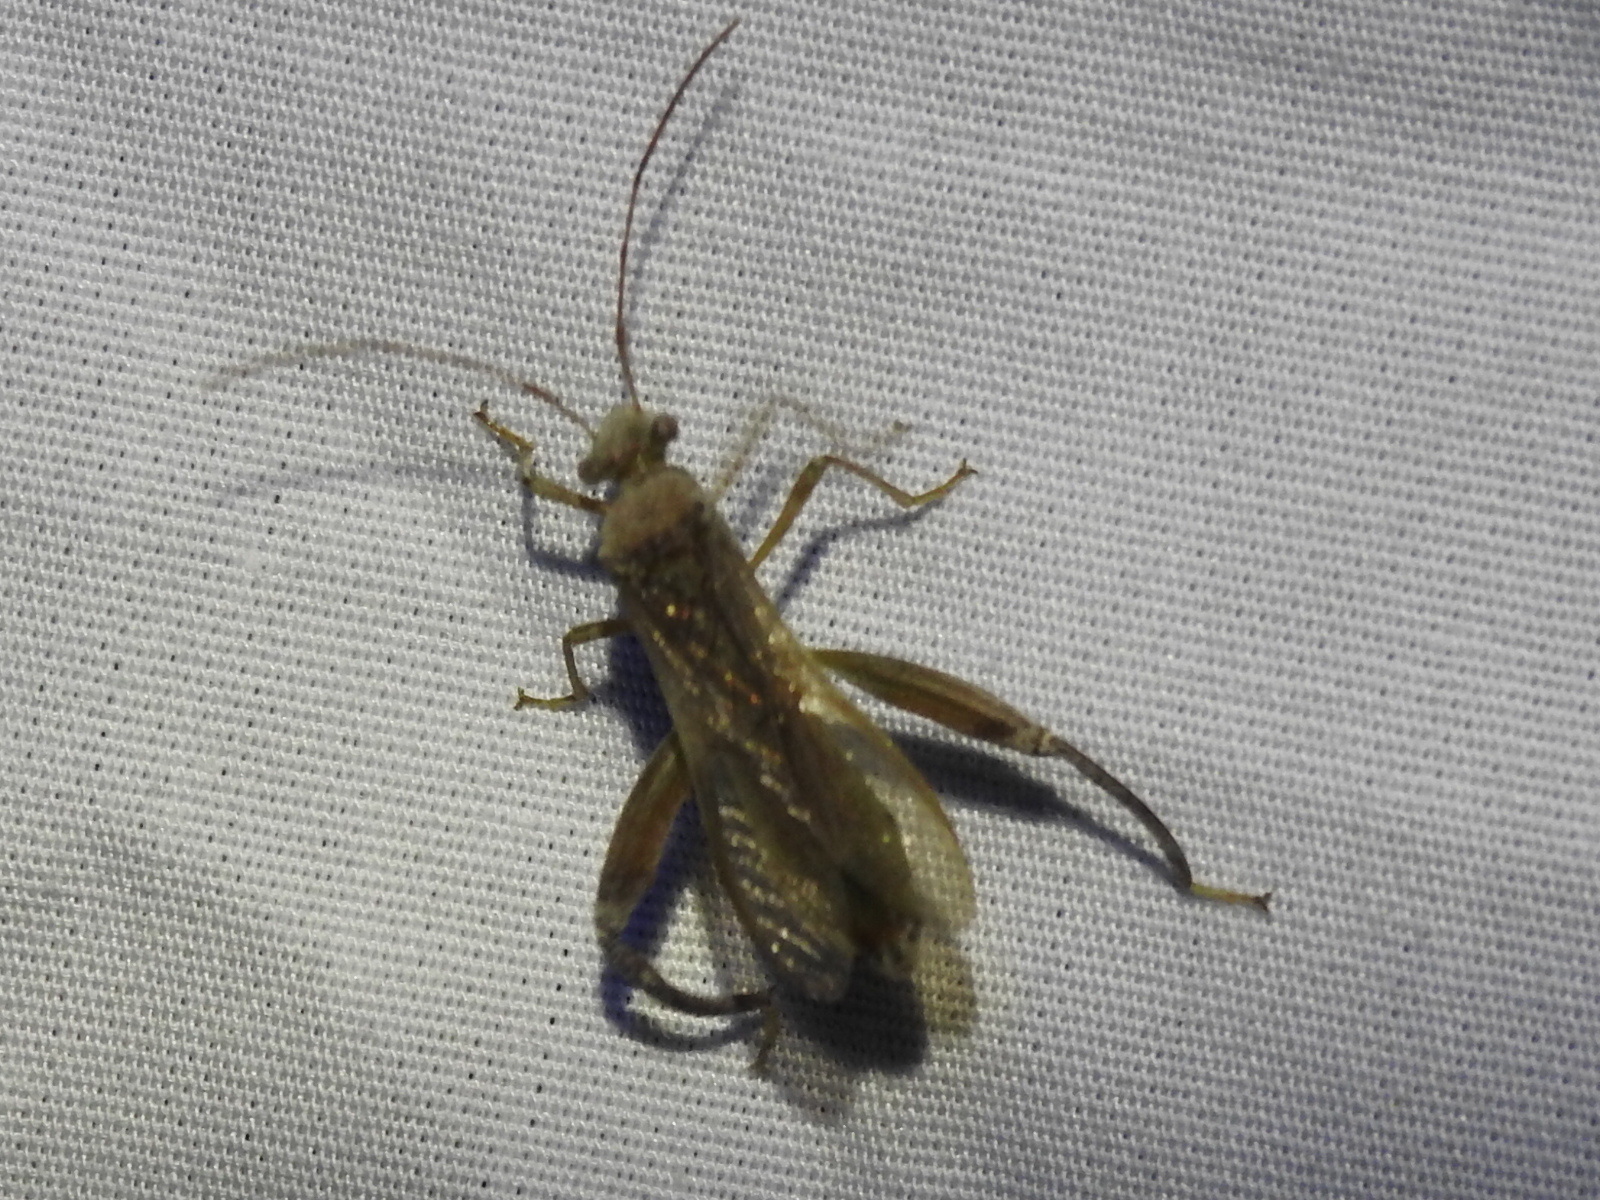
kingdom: Animalia
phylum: Arthropoda
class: Insecta
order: Hemiptera
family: Alydidae
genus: Hyalymenus
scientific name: Hyalymenus tarsatus
